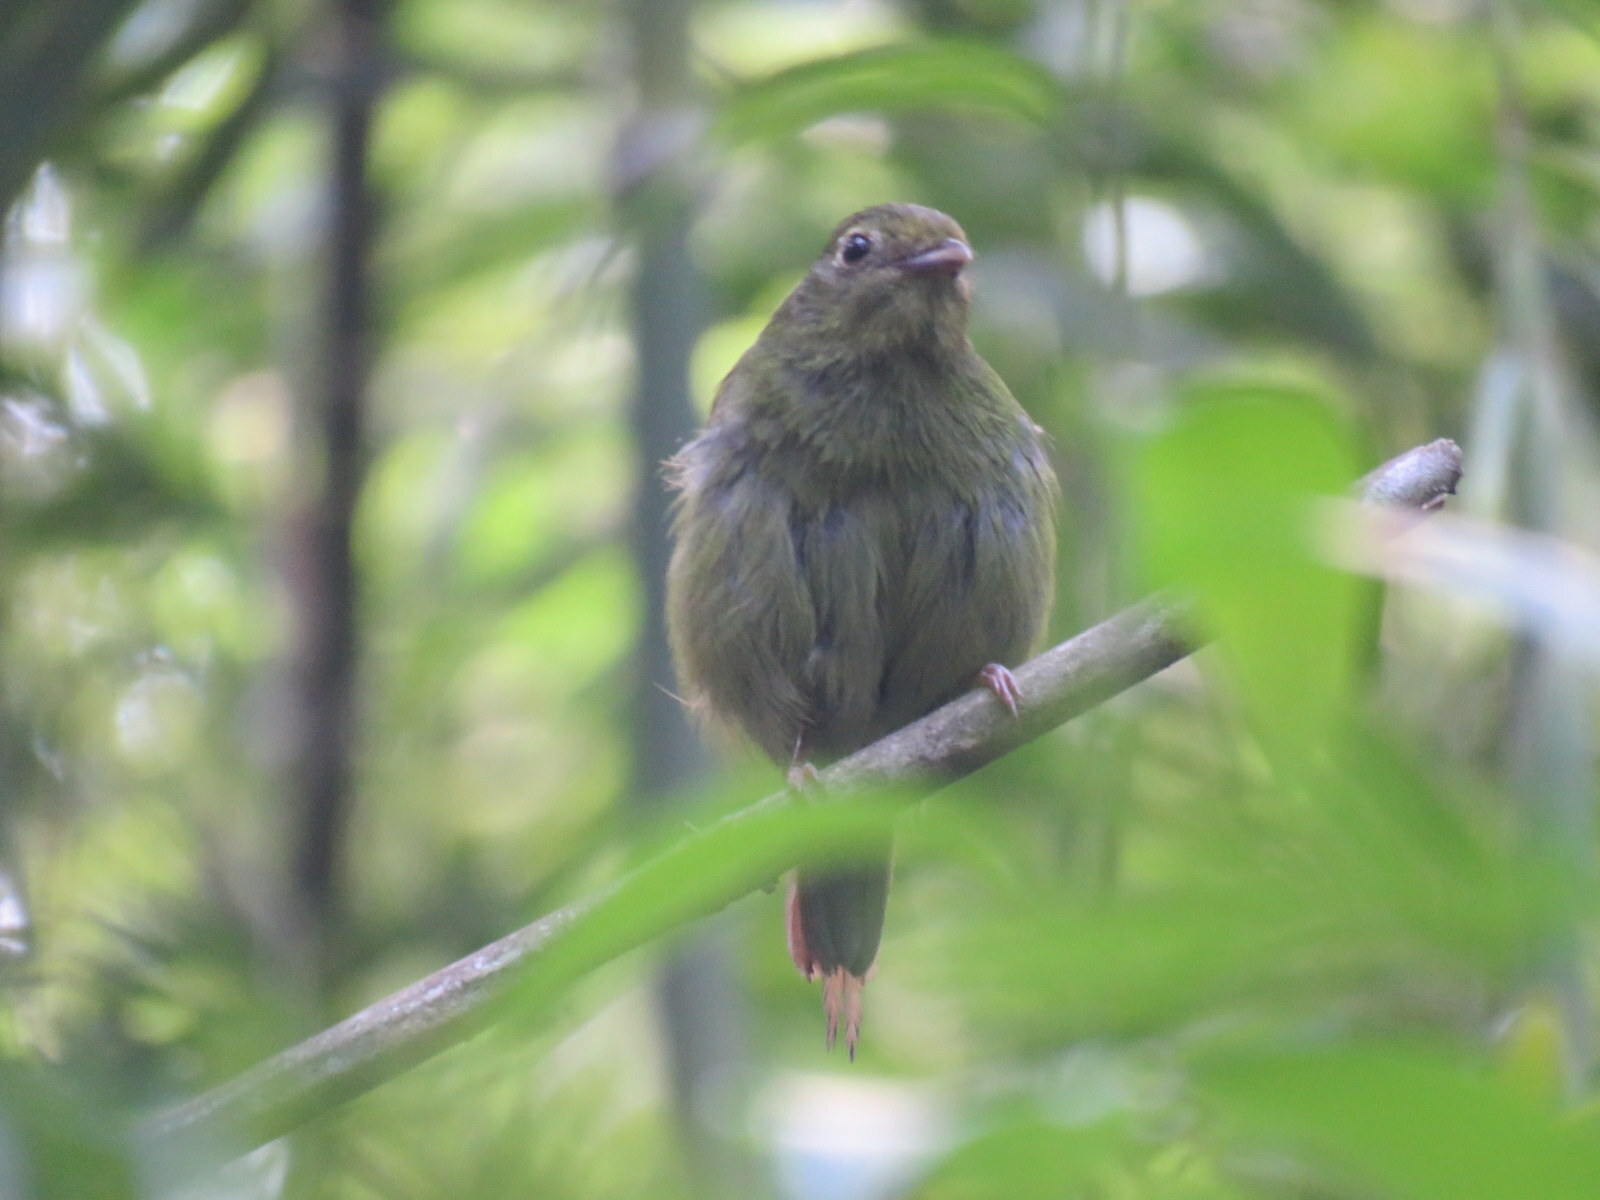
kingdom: Animalia
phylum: Chordata
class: Aves
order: Passeriformes
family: Pipridae
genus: Chiroxiphia
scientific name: Chiroxiphia caudata
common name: Blue manakin
